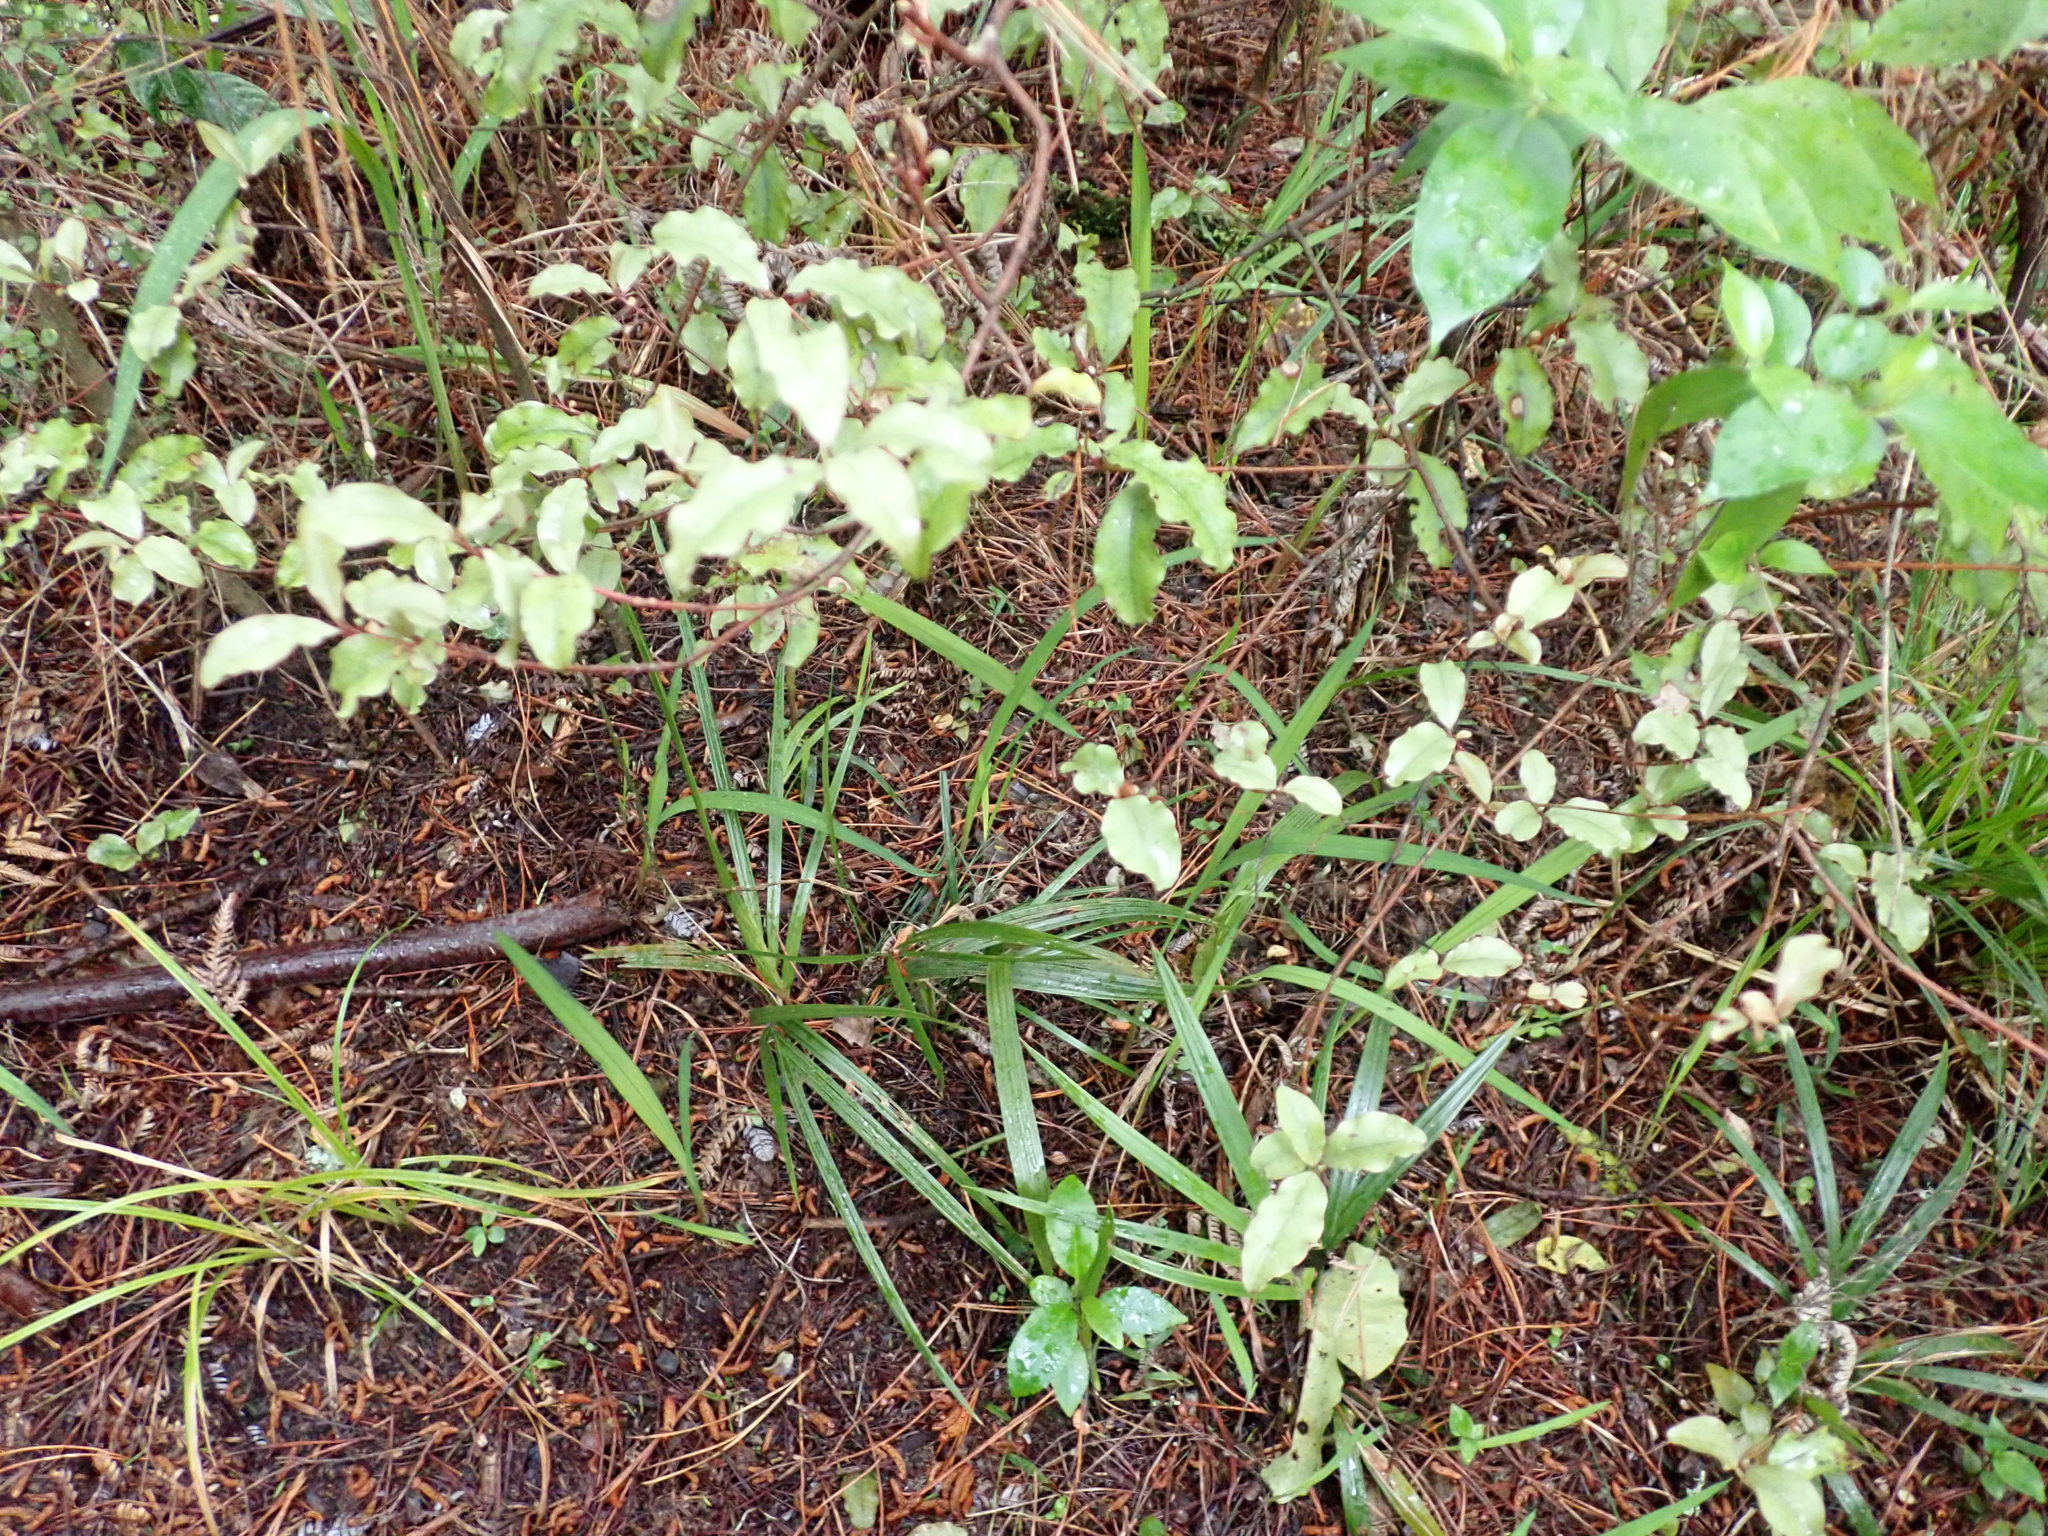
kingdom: Plantae
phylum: Tracheophyta
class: Liliopsida
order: Arecales
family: Arecaceae
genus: Rhopalostylis
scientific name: Rhopalostylis sapida
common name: Feather-duster palm
